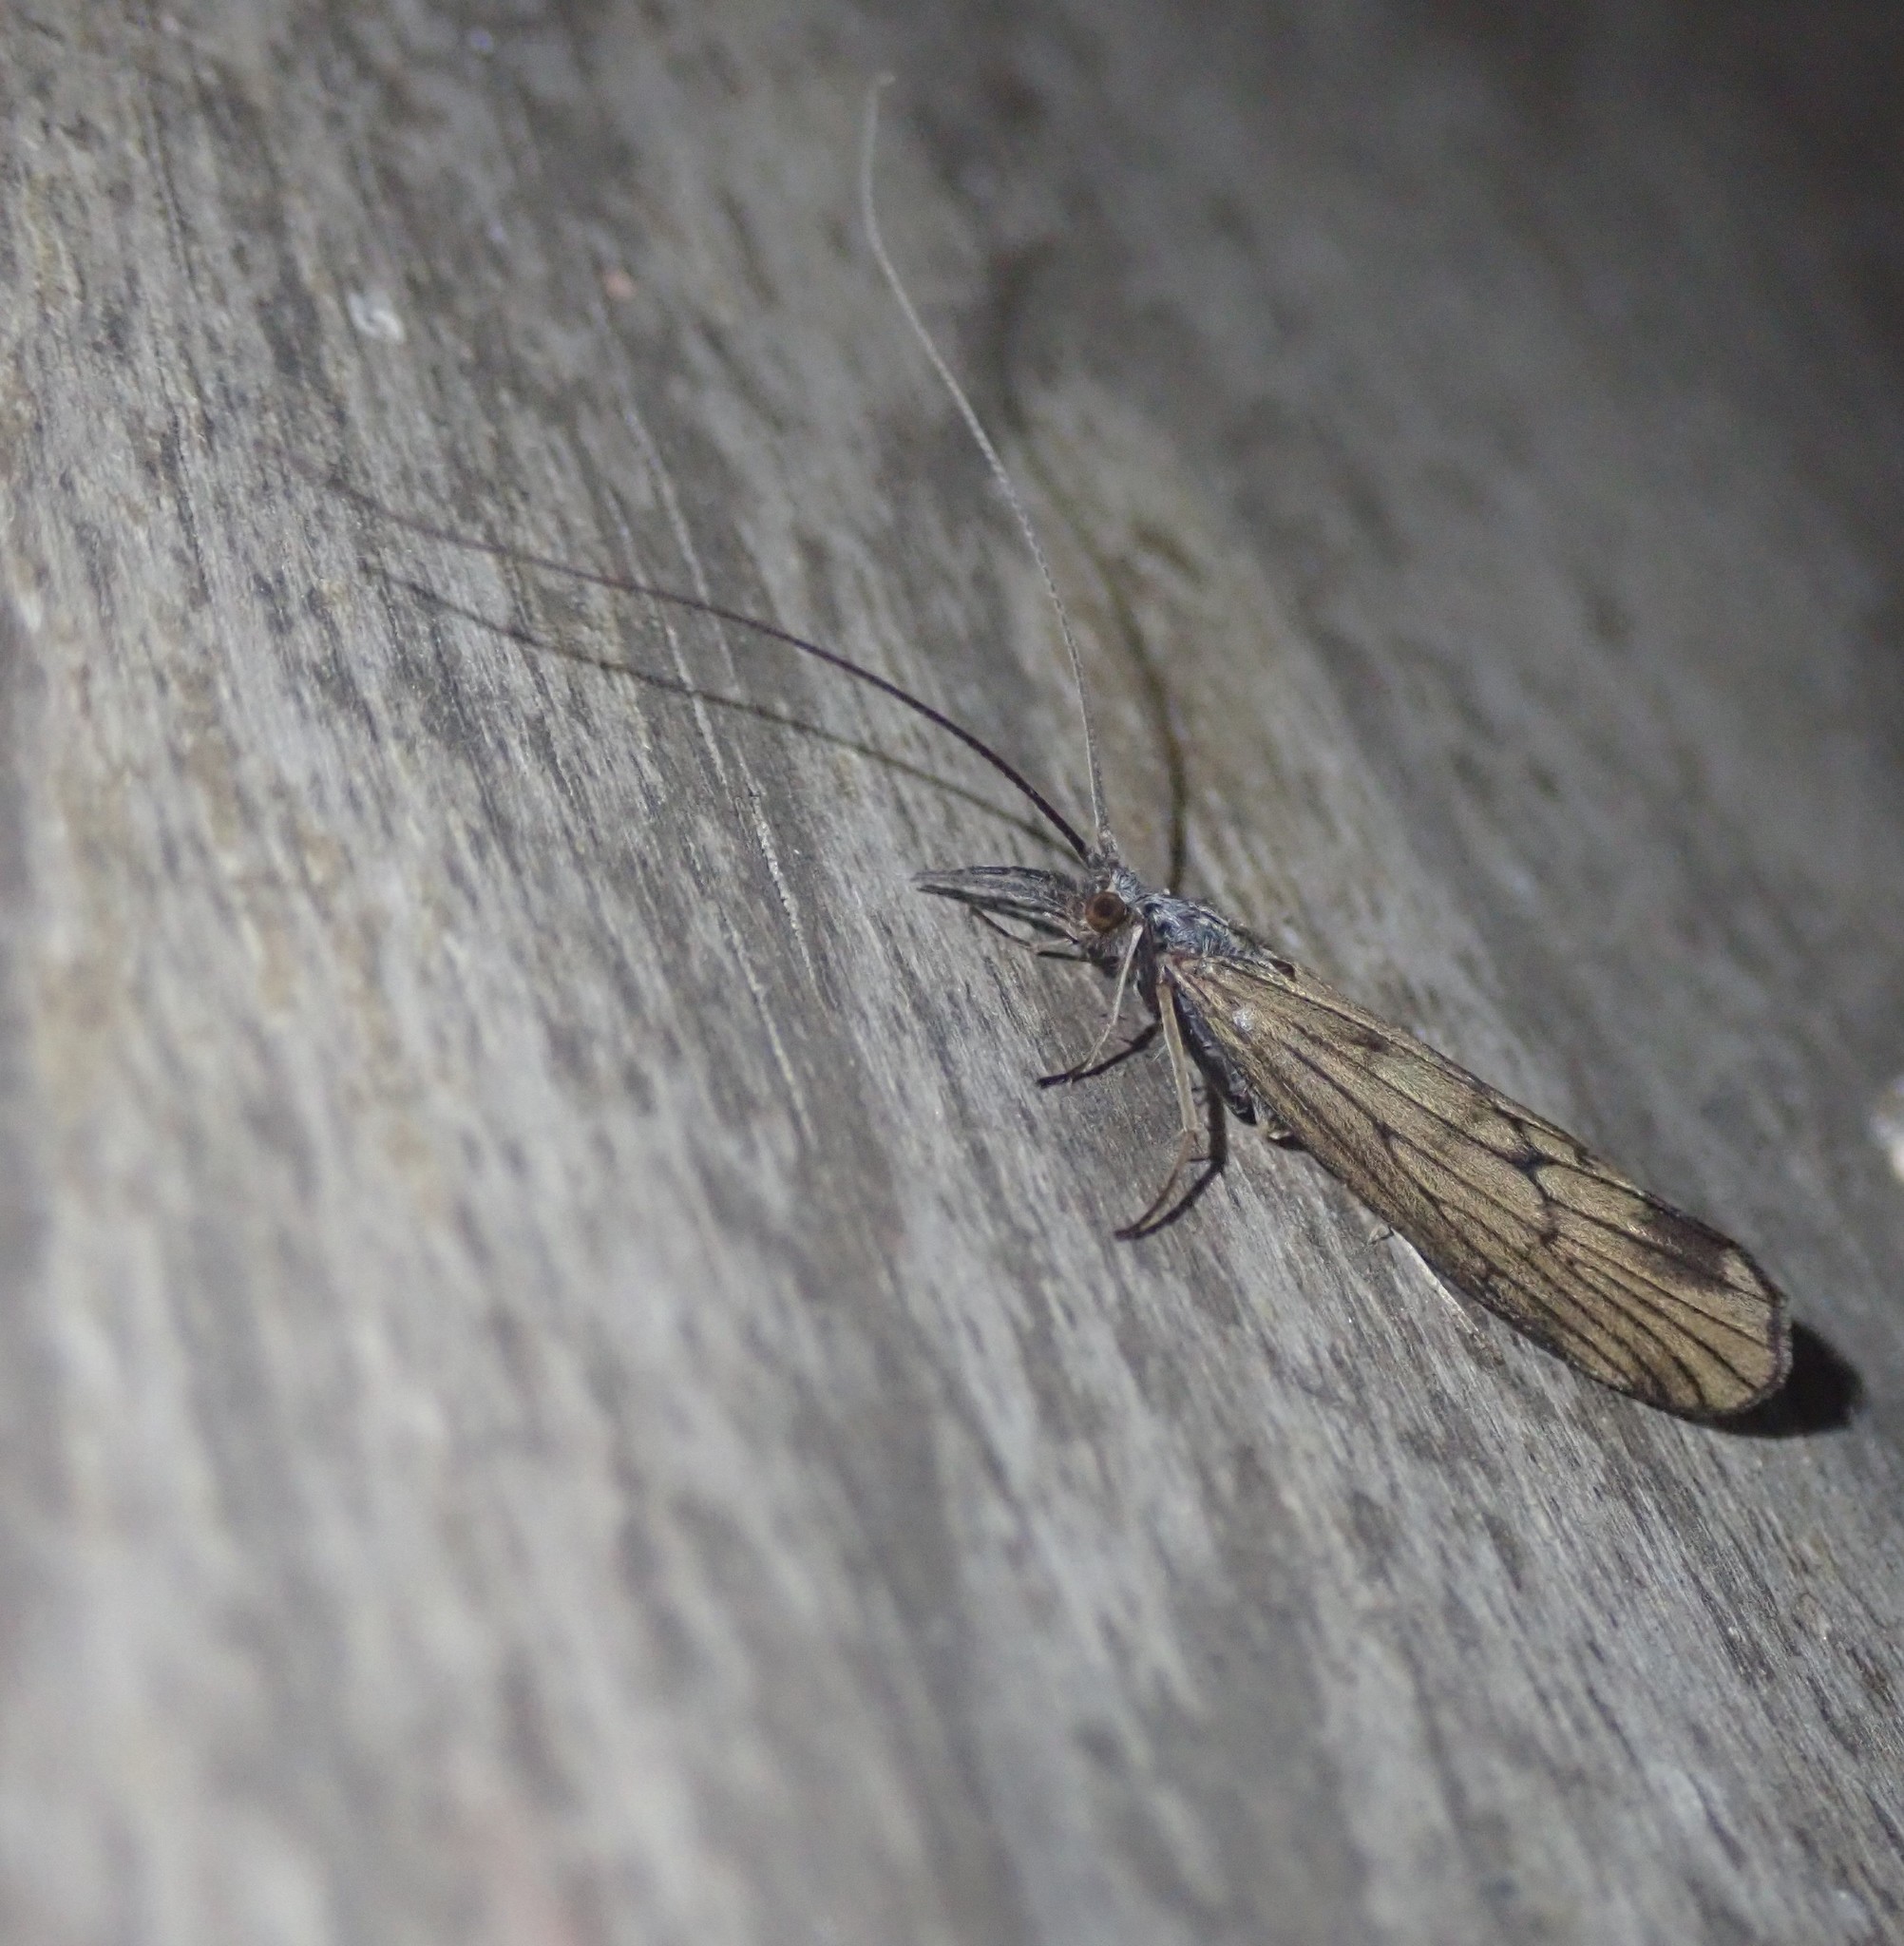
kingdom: Animalia
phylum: Arthropoda
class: Insecta
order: Trichoptera
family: Odontoceridae
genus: Odontocerum
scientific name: Odontocerum albicorne
